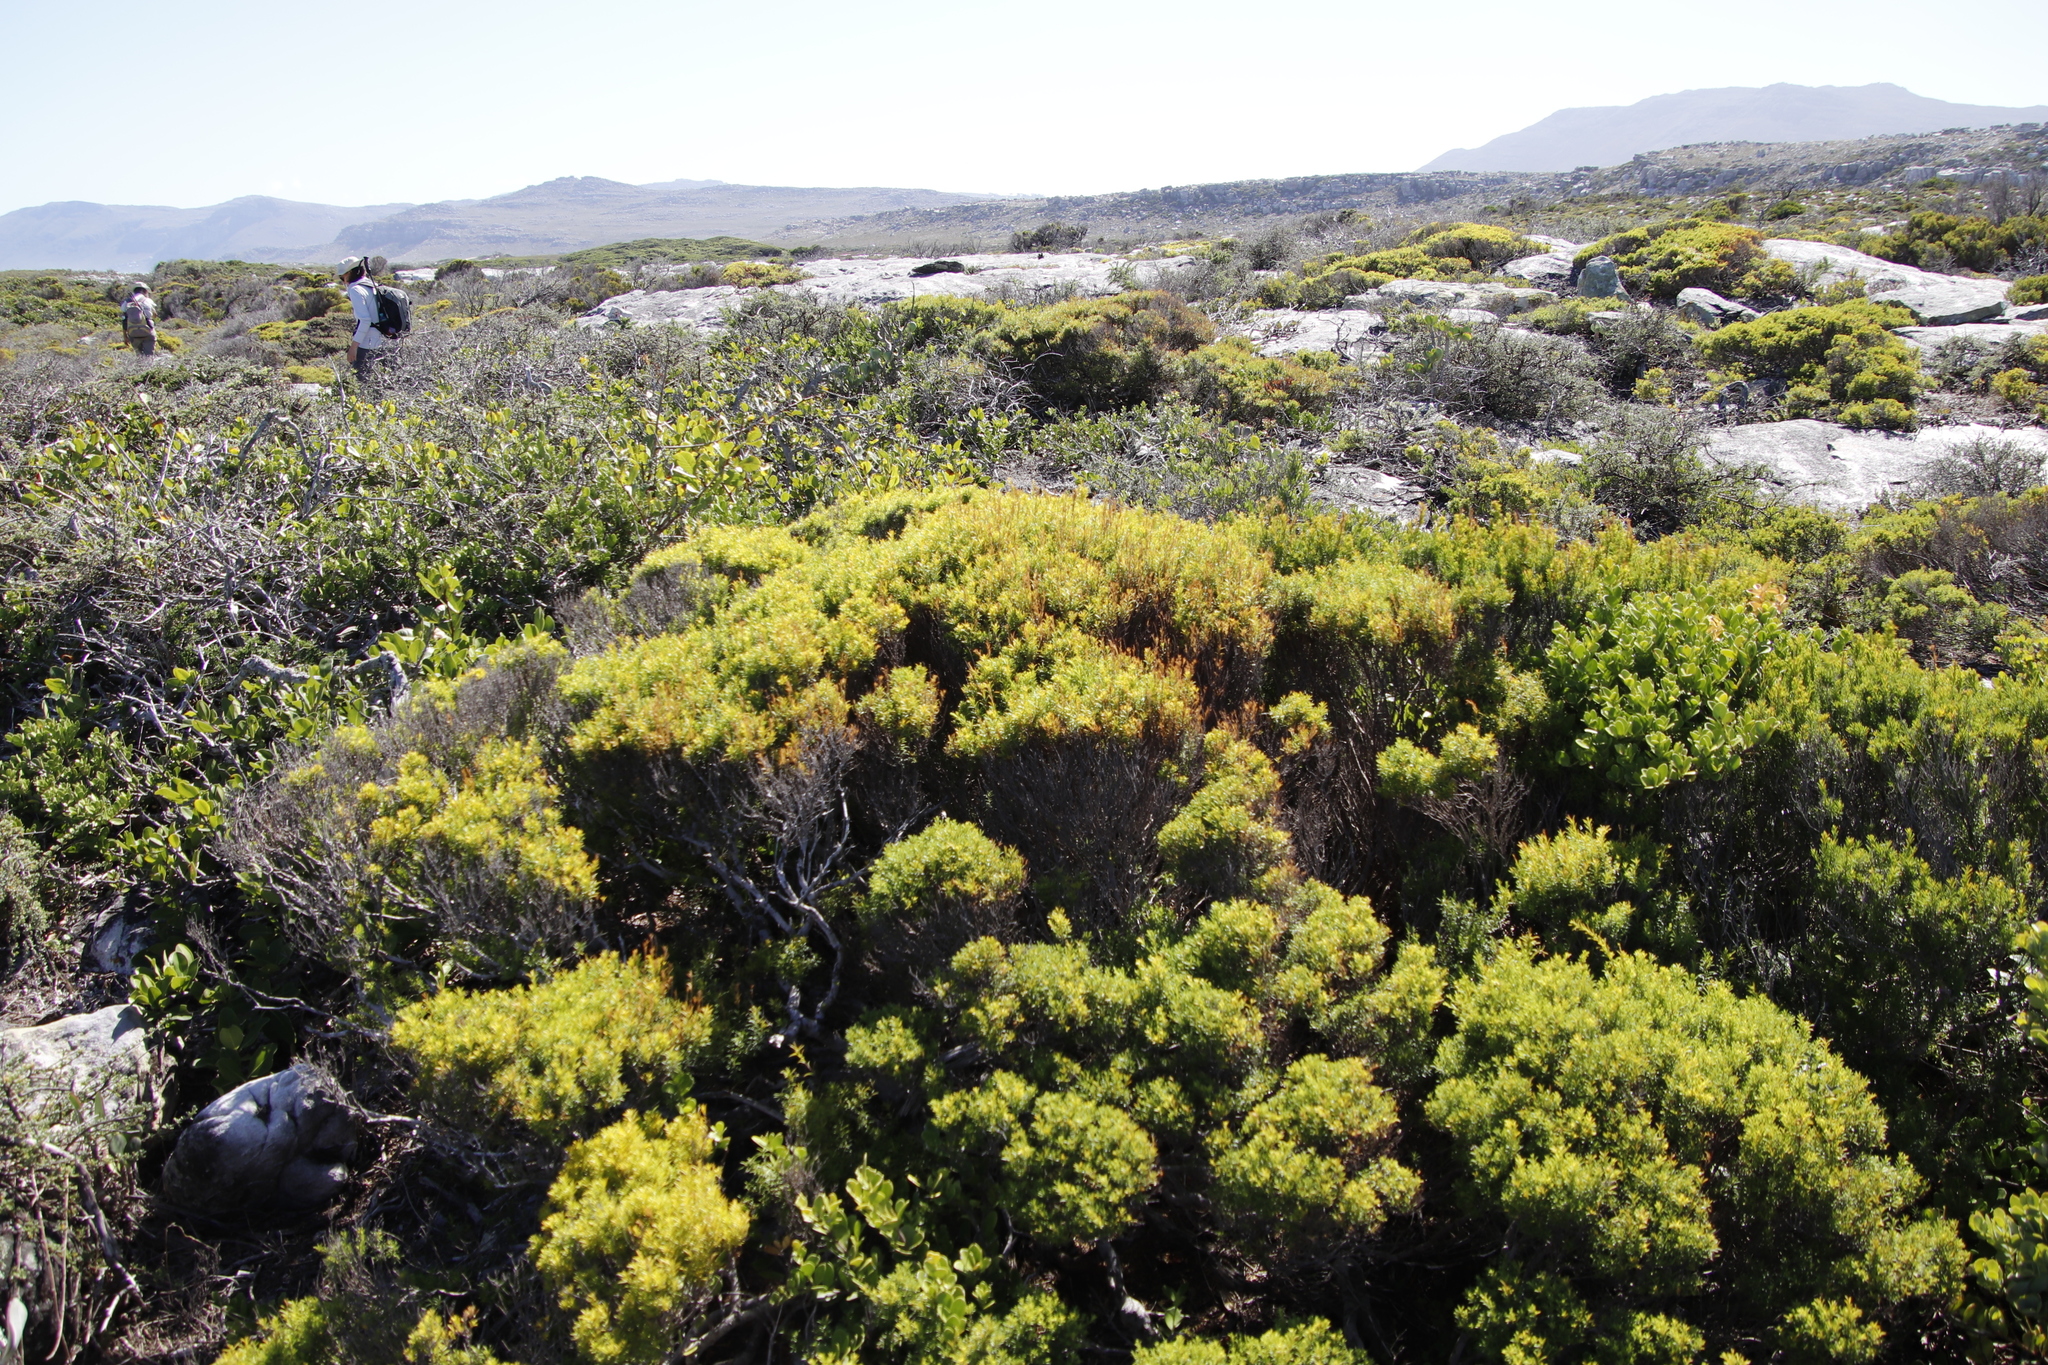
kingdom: Plantae
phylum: Tracheophyta
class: Magnoliopsida
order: Sapindales
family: Rutaceae
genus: Coleonema
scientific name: Coleonema album
